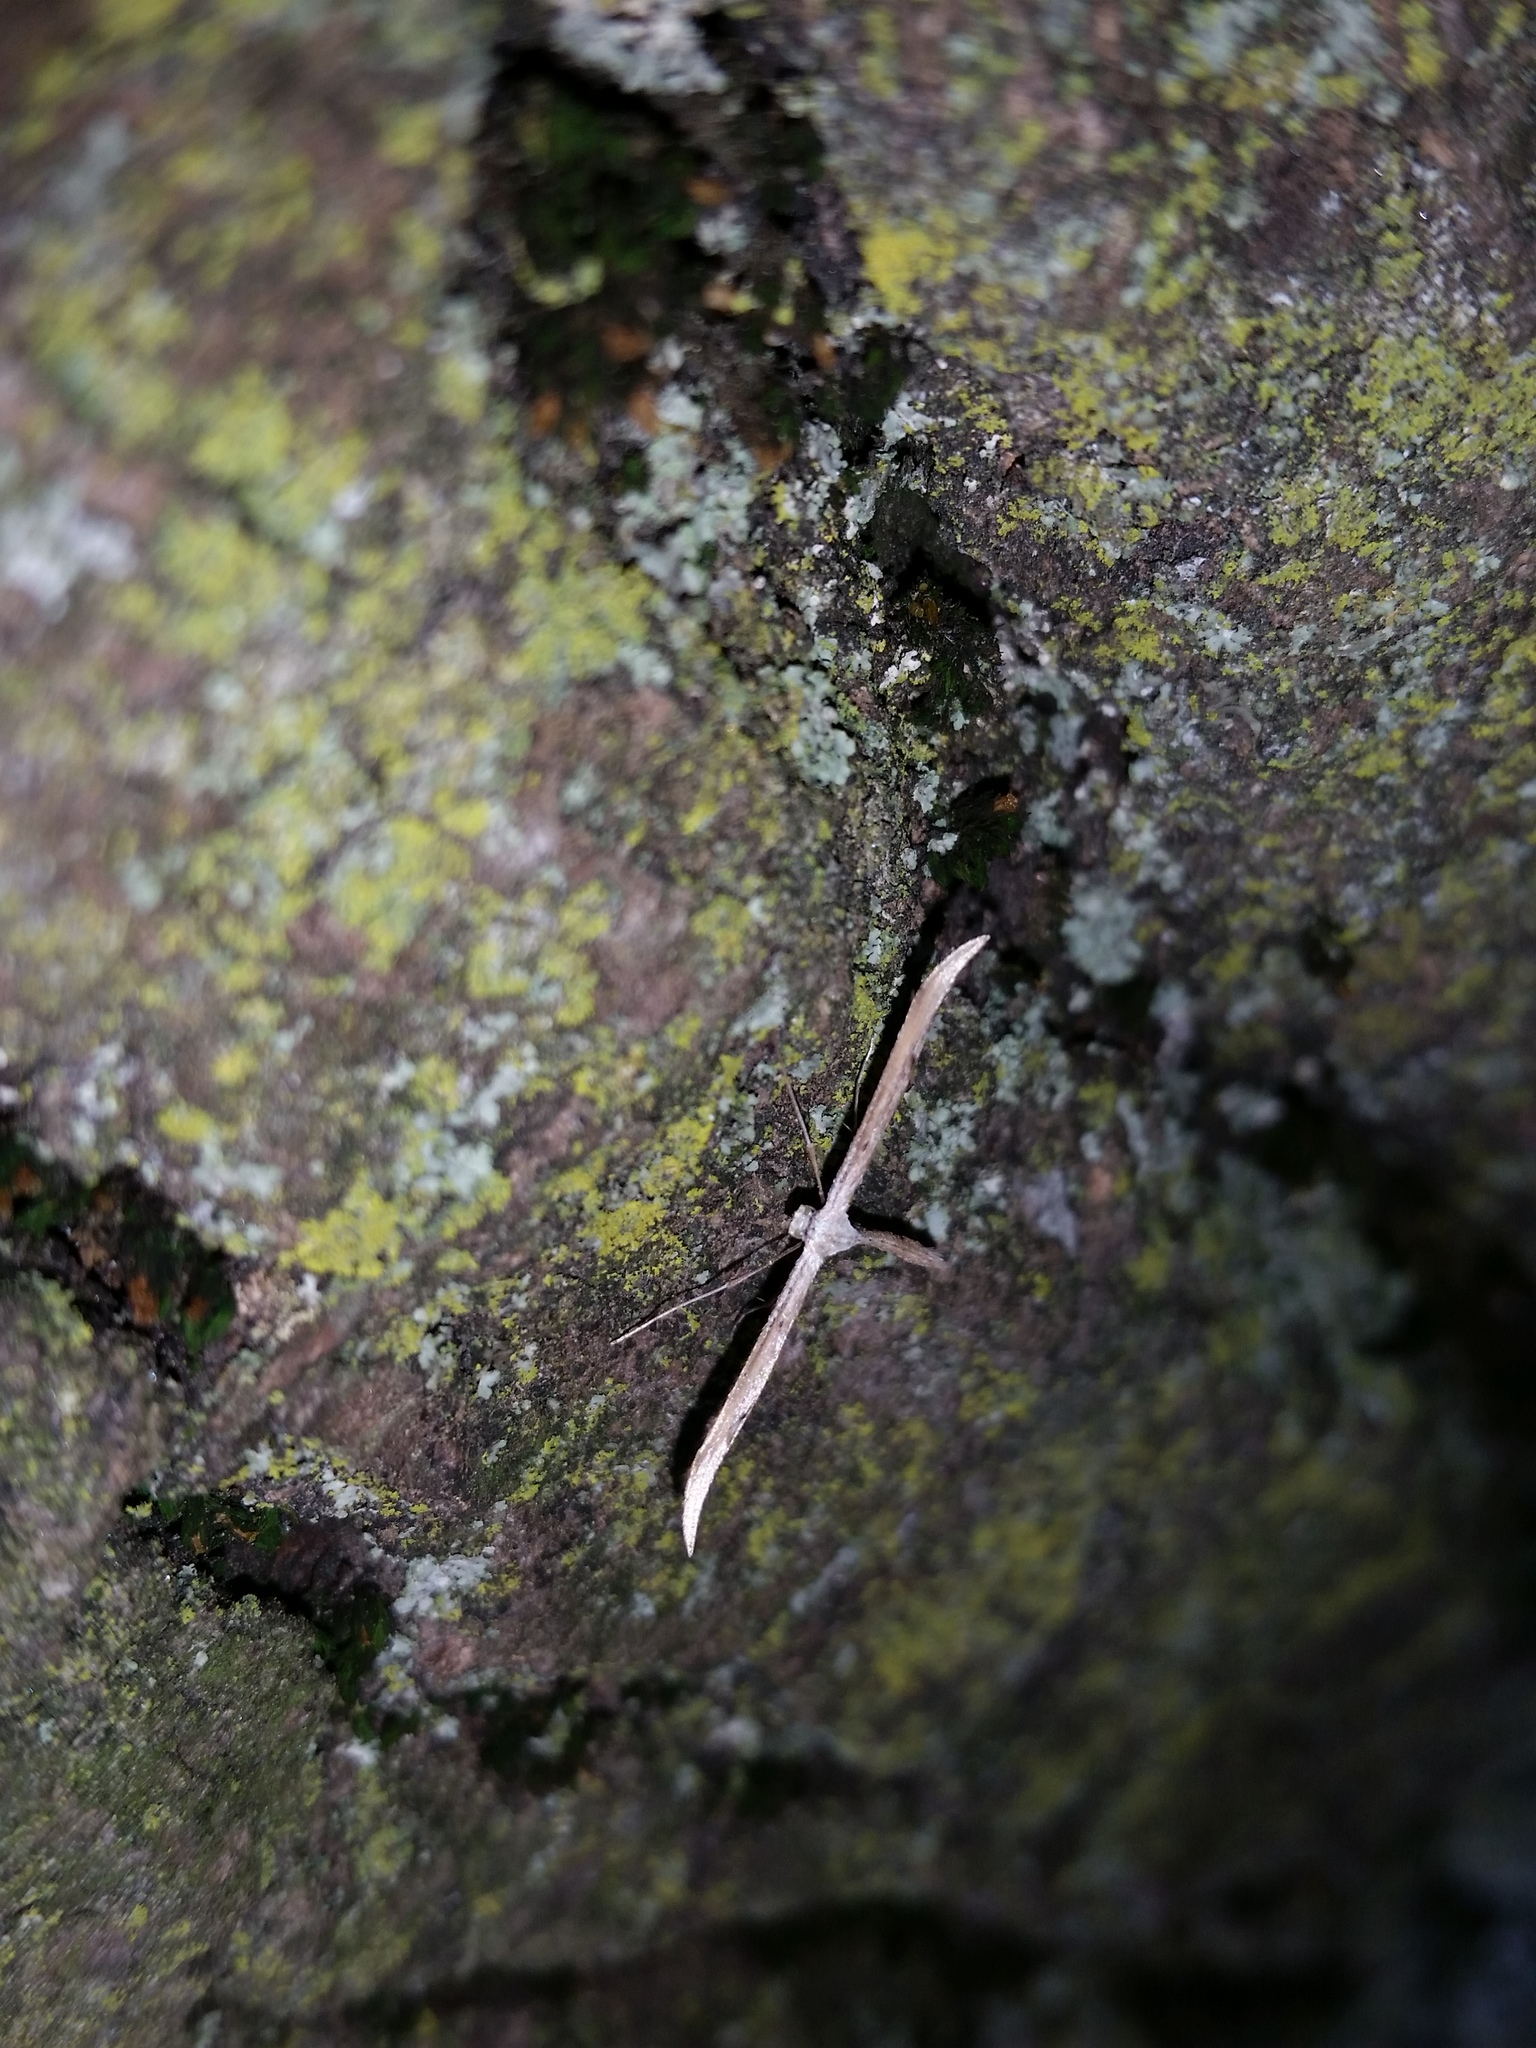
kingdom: Animalia
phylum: Arthropoda
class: Insecta
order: Lepidoptera
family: Pterophoridae
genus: Emmelina
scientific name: Emmelina monodactyla
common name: Common plume
